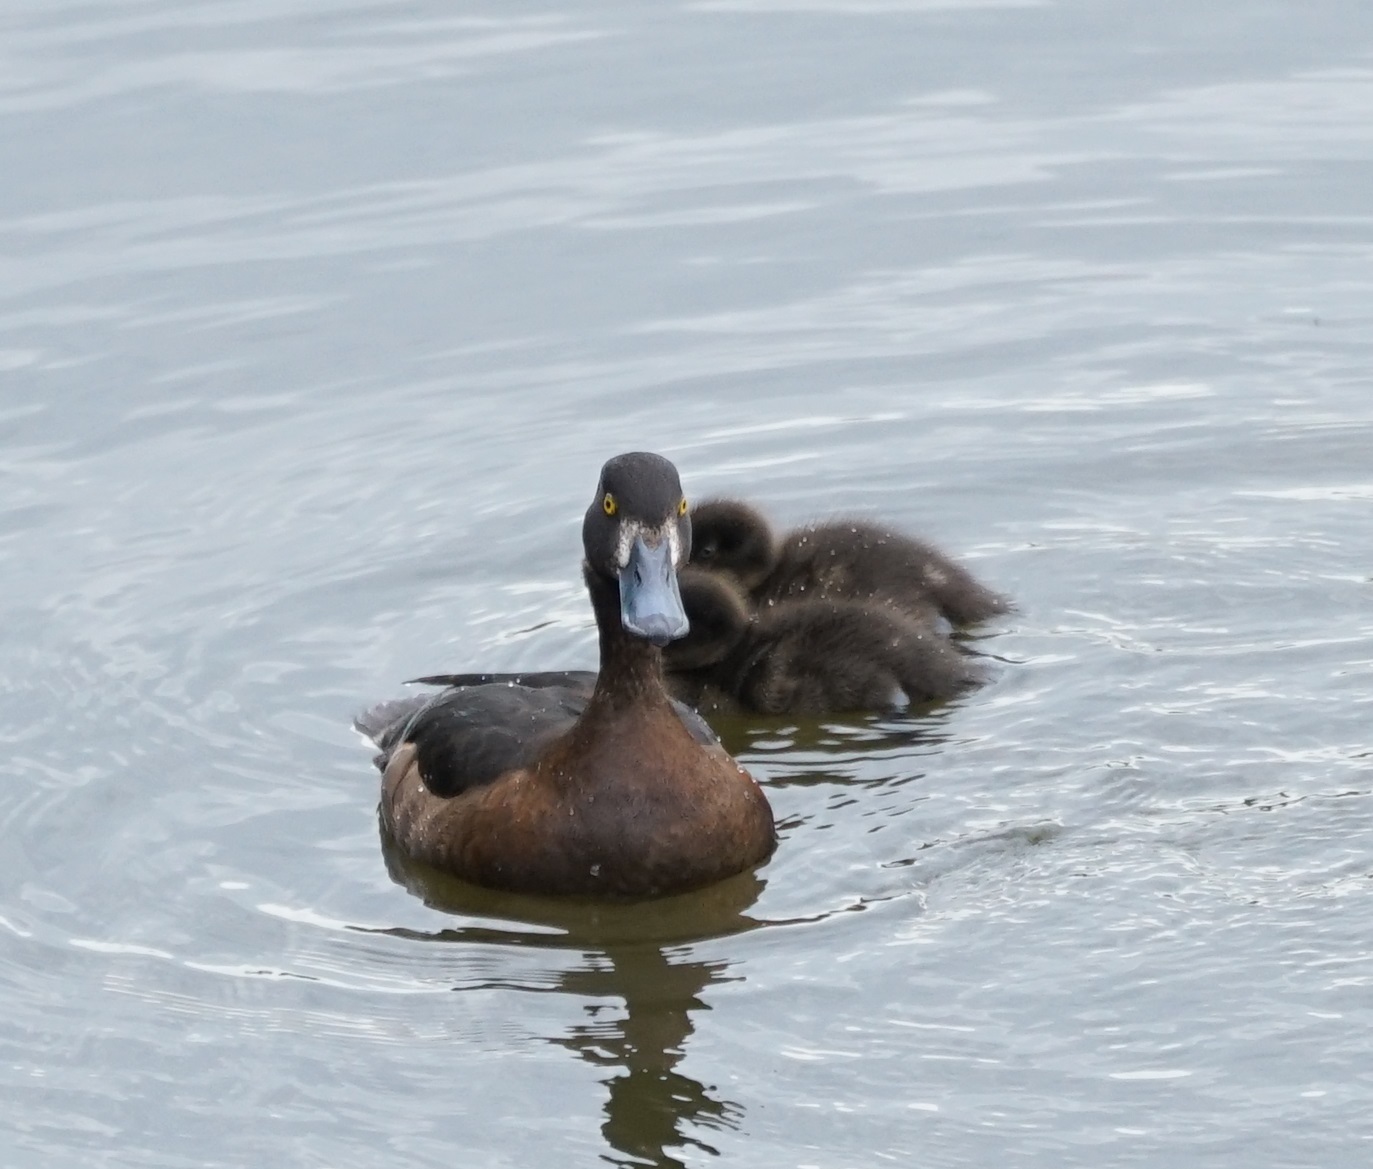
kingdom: Animalia
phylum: Chordata
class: Aves
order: Anseriformes
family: Anatidae
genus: Aythya
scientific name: Aythya fuligula
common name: Tufted duck
